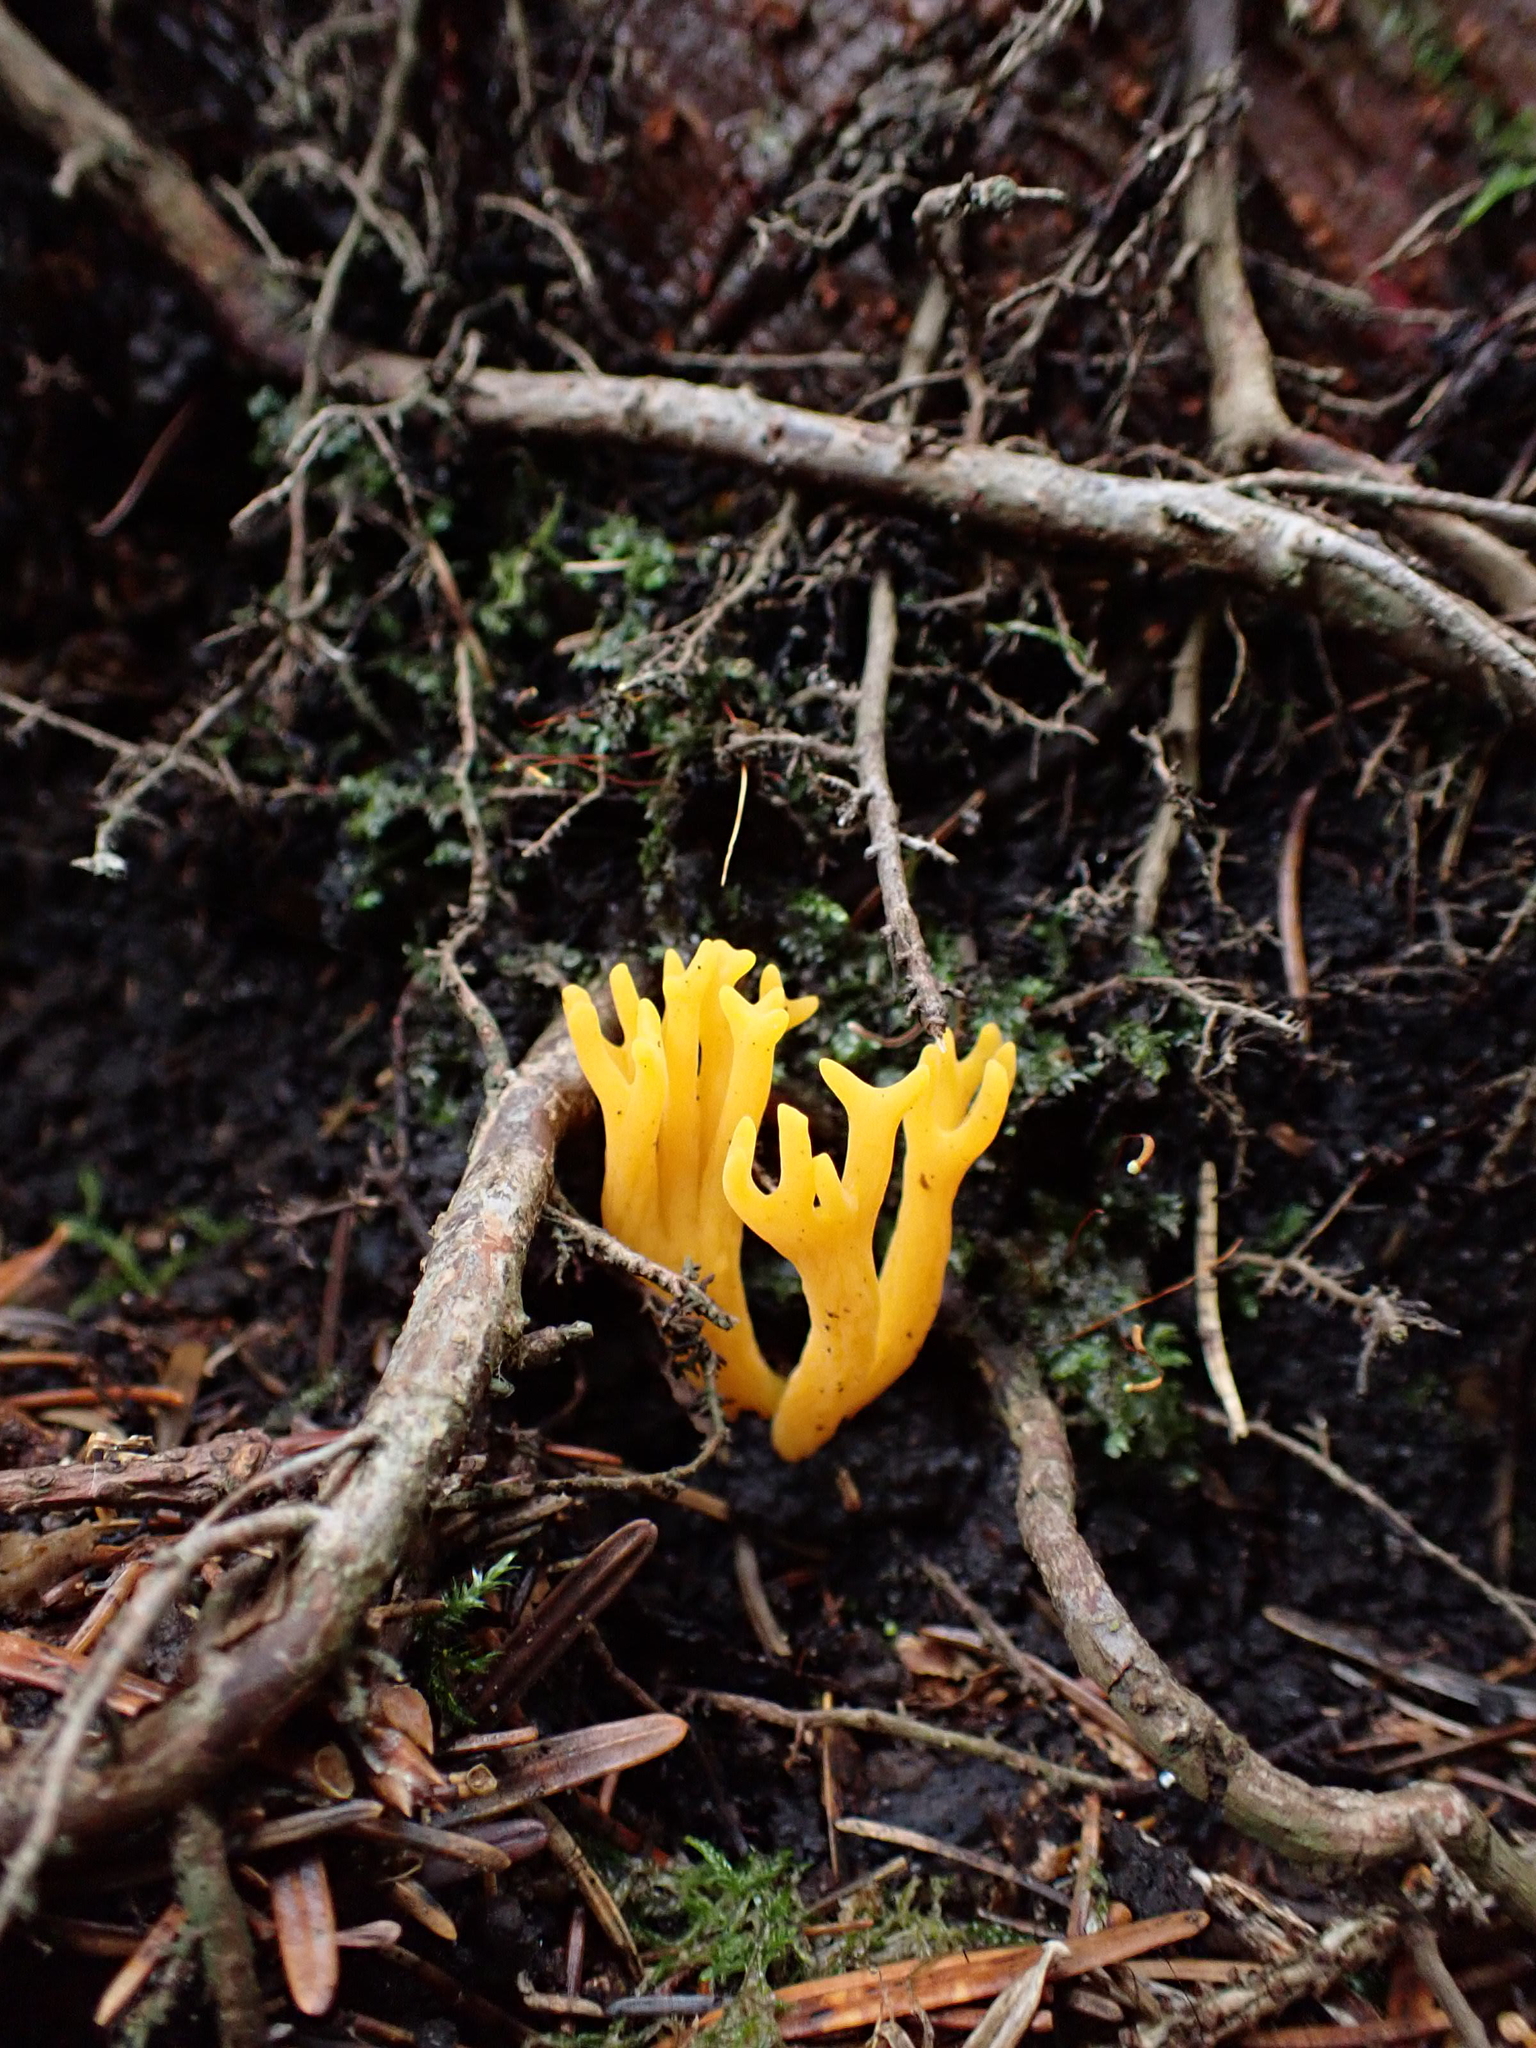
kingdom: Fungi
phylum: Basidiomycota
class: Dacrymycetes
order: Dacrymycetales
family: Dacrymycetaceae
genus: Calocera
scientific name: Calocera viscosa
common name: Yellow stagshorn
